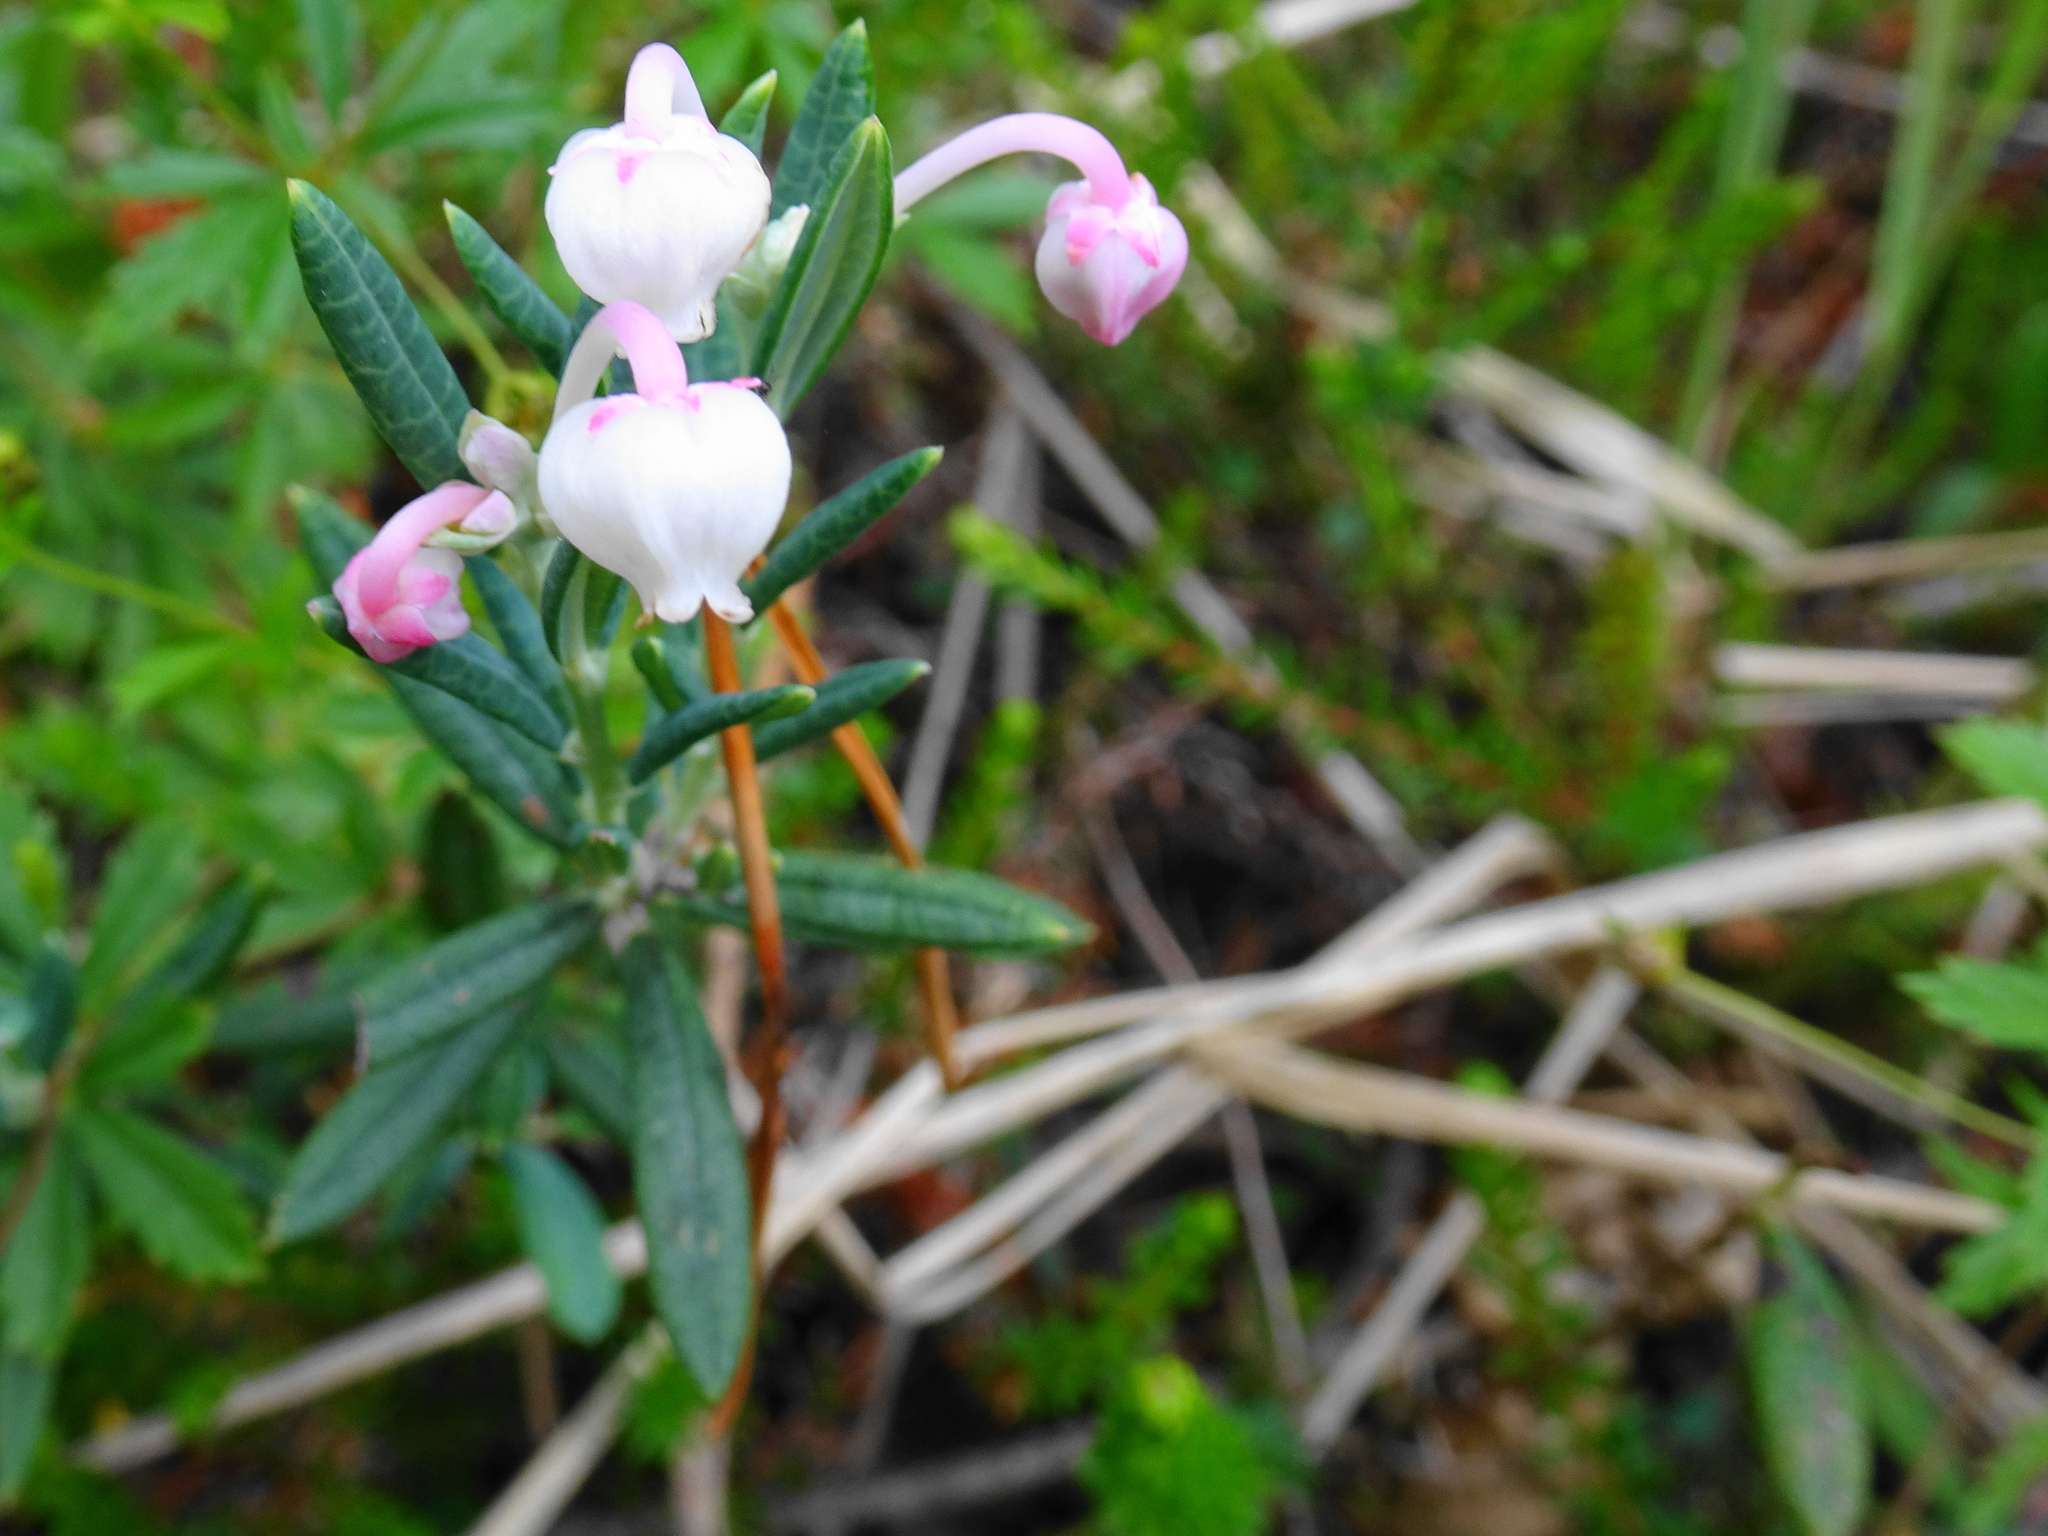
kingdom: Plantae
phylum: Tracheophyta
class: Magnoliopsida
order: Ericales
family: Ericaceae
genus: Andromeda
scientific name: Andromeda polifolia
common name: Bog-rosemary
